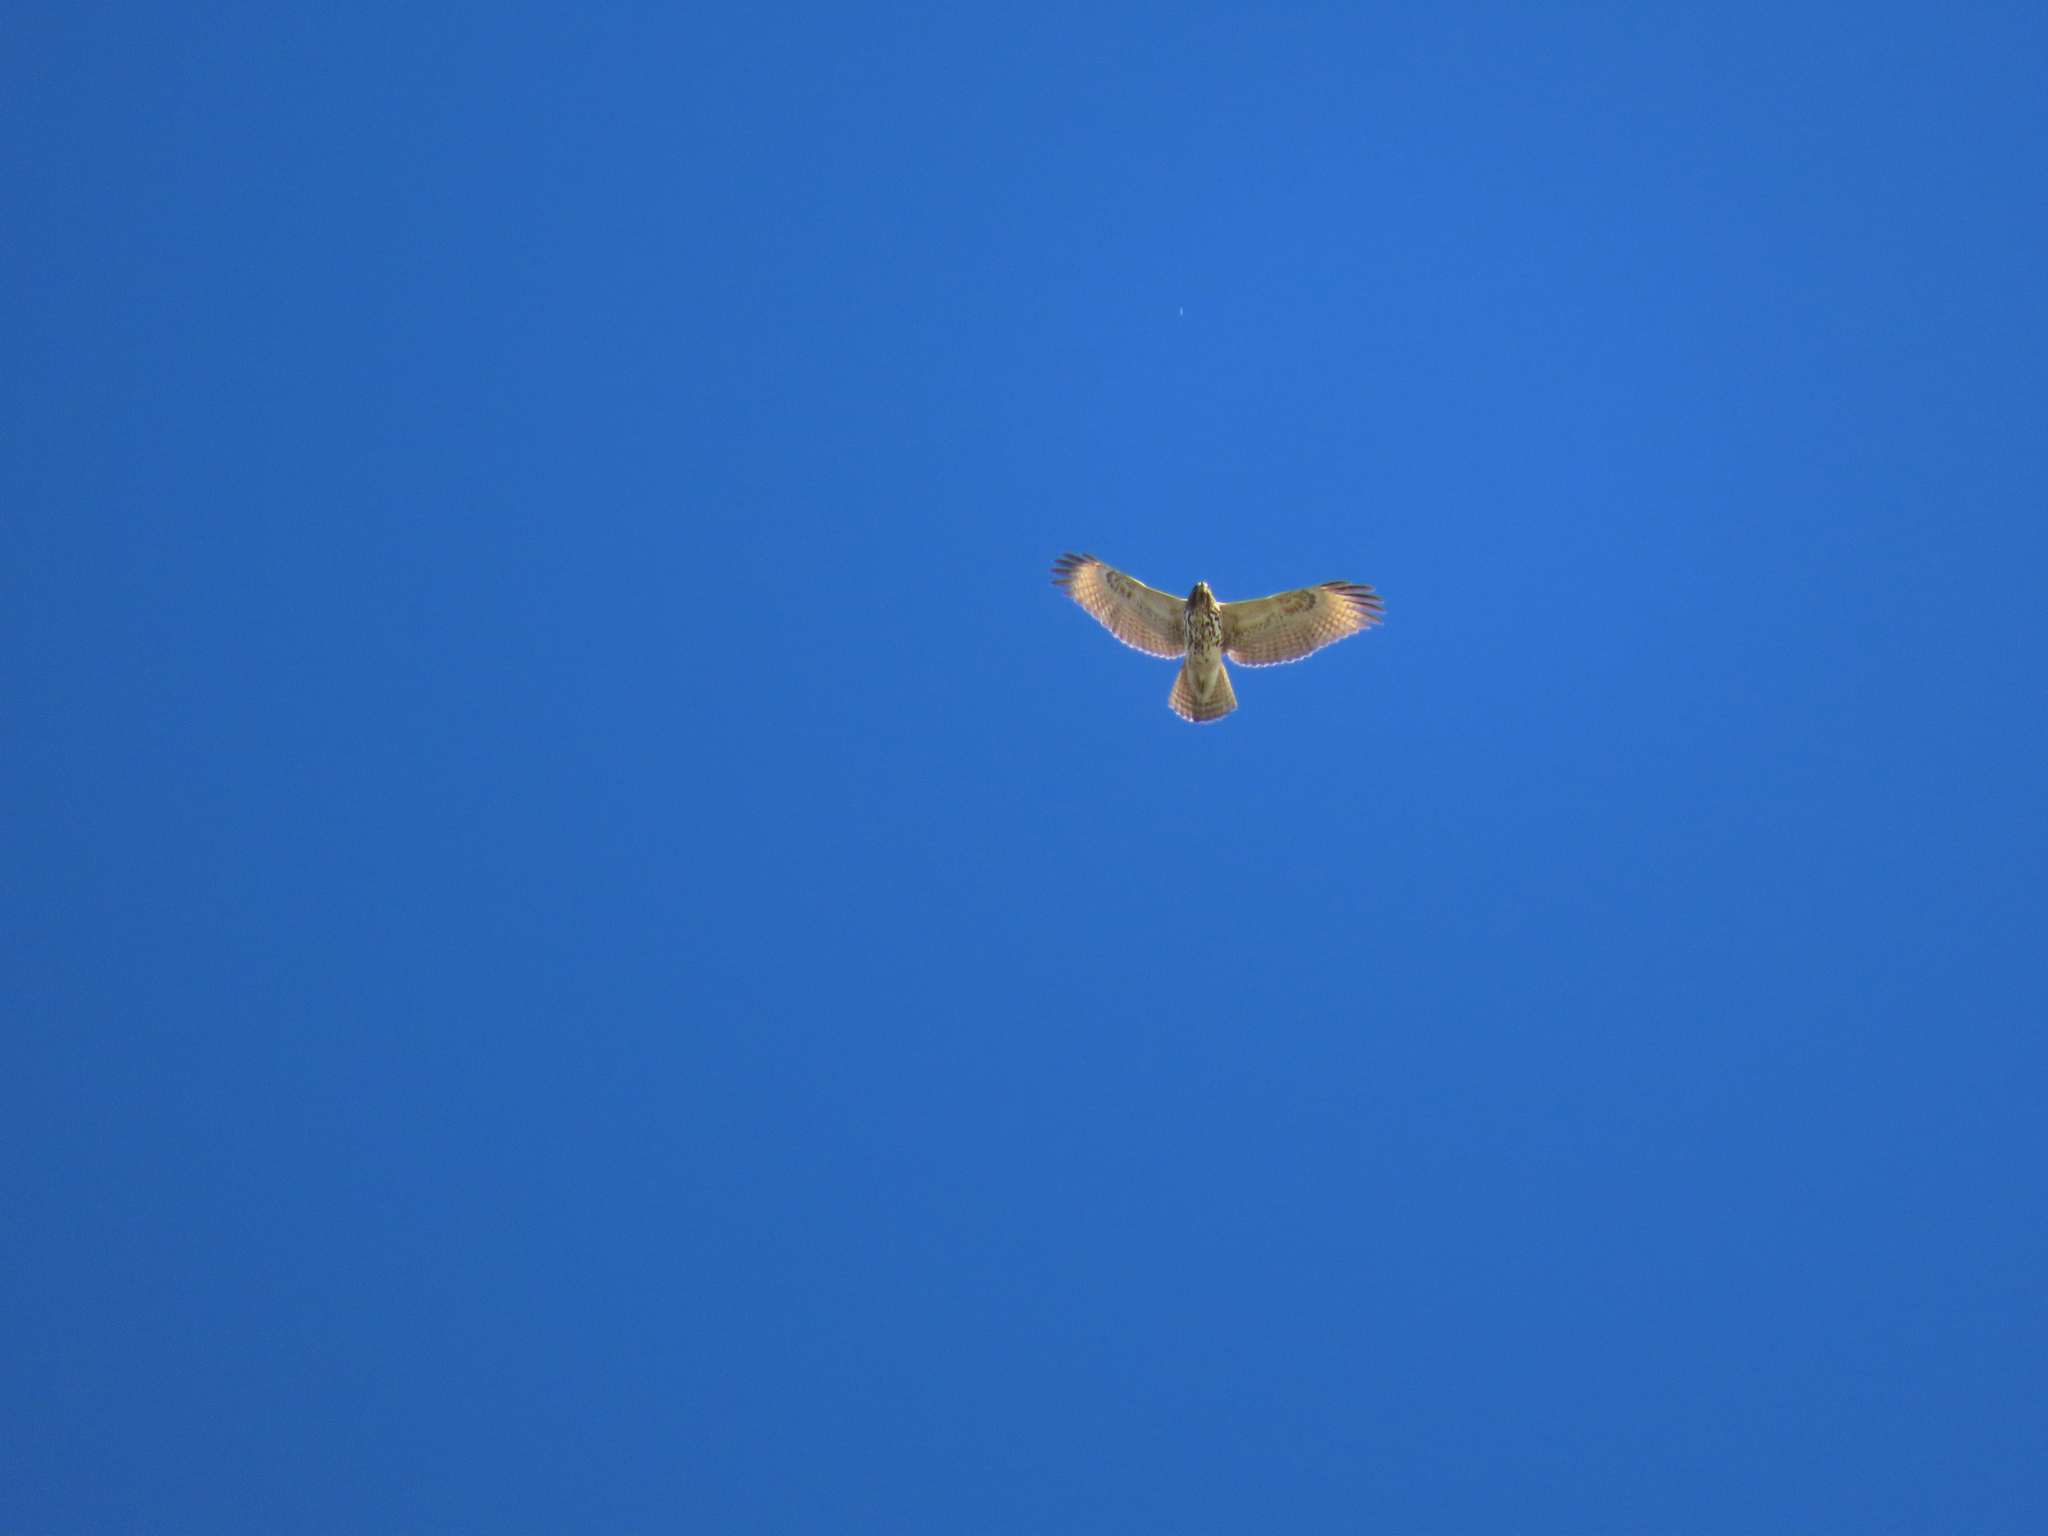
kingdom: Animalia
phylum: Chordata
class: Aves
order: Accipitriformes
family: Accipitridae
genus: Buteo
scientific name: Buteo lineatus
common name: Red-shouldered hawk
